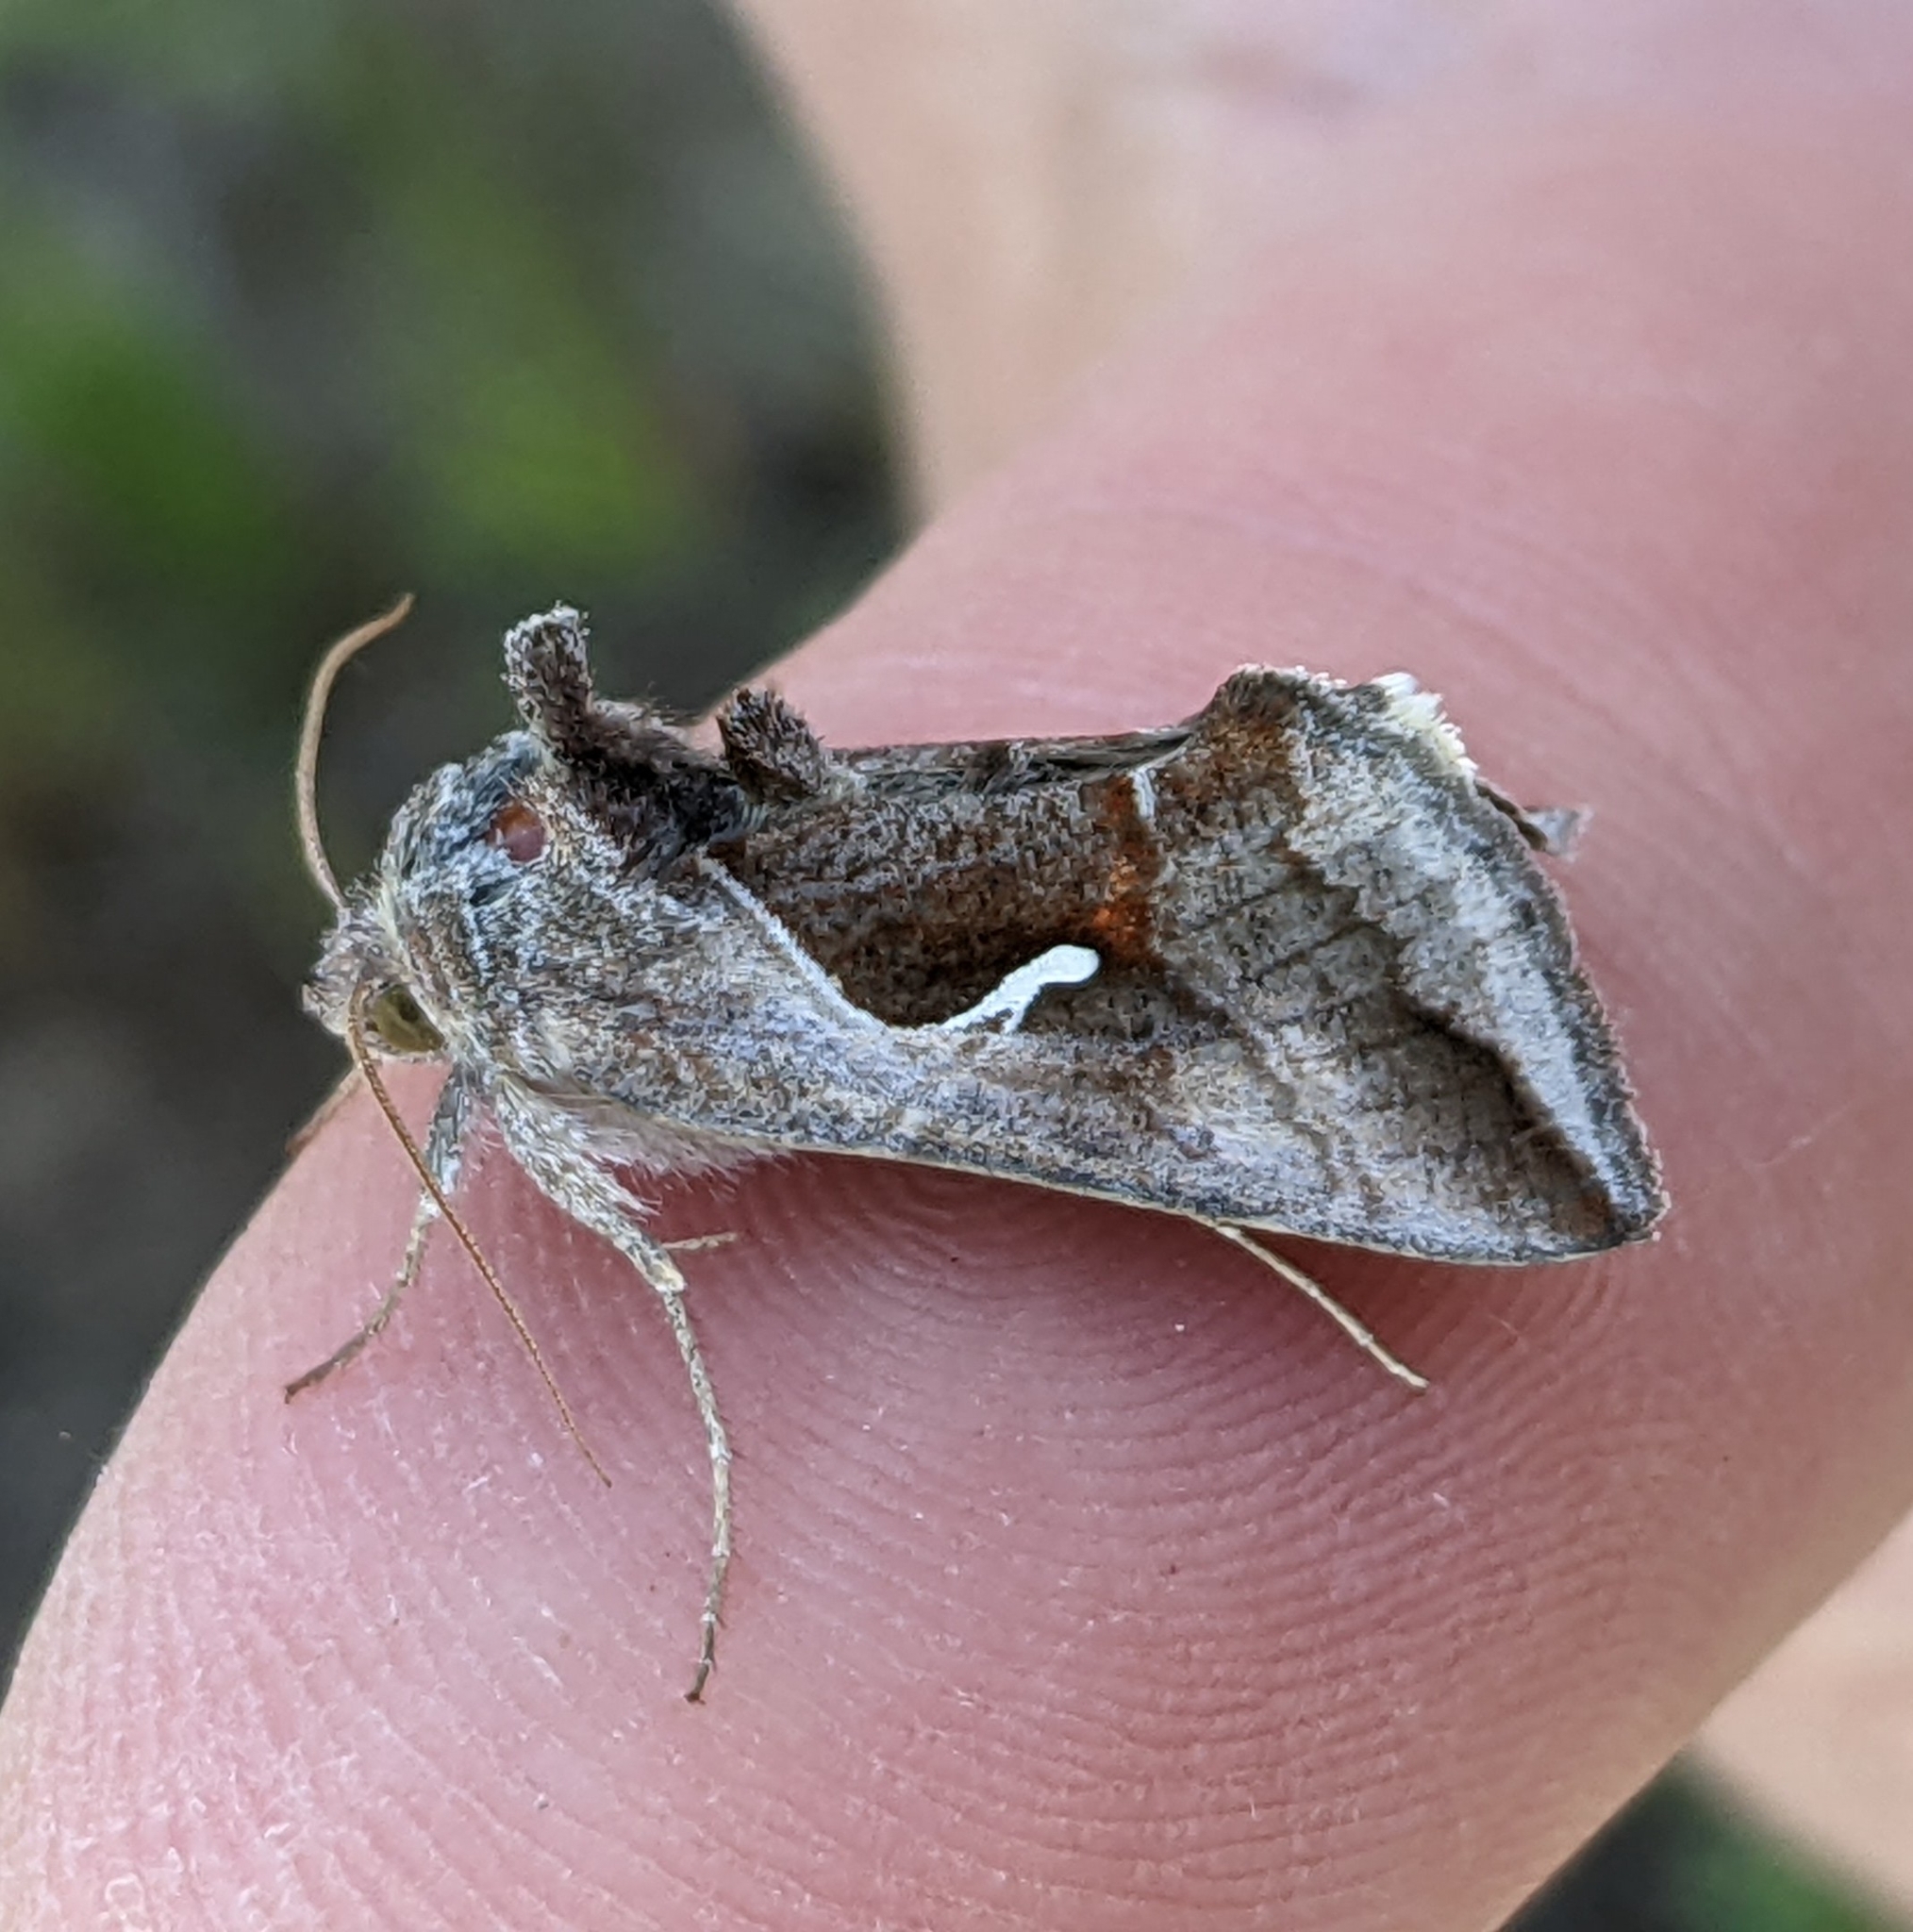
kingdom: Animalia
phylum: Arthropoda
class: Insecta
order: Lepidoptera
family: Noctuidae
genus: Anagrapha
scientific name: Anagrapha falcifera
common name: Celery looper
